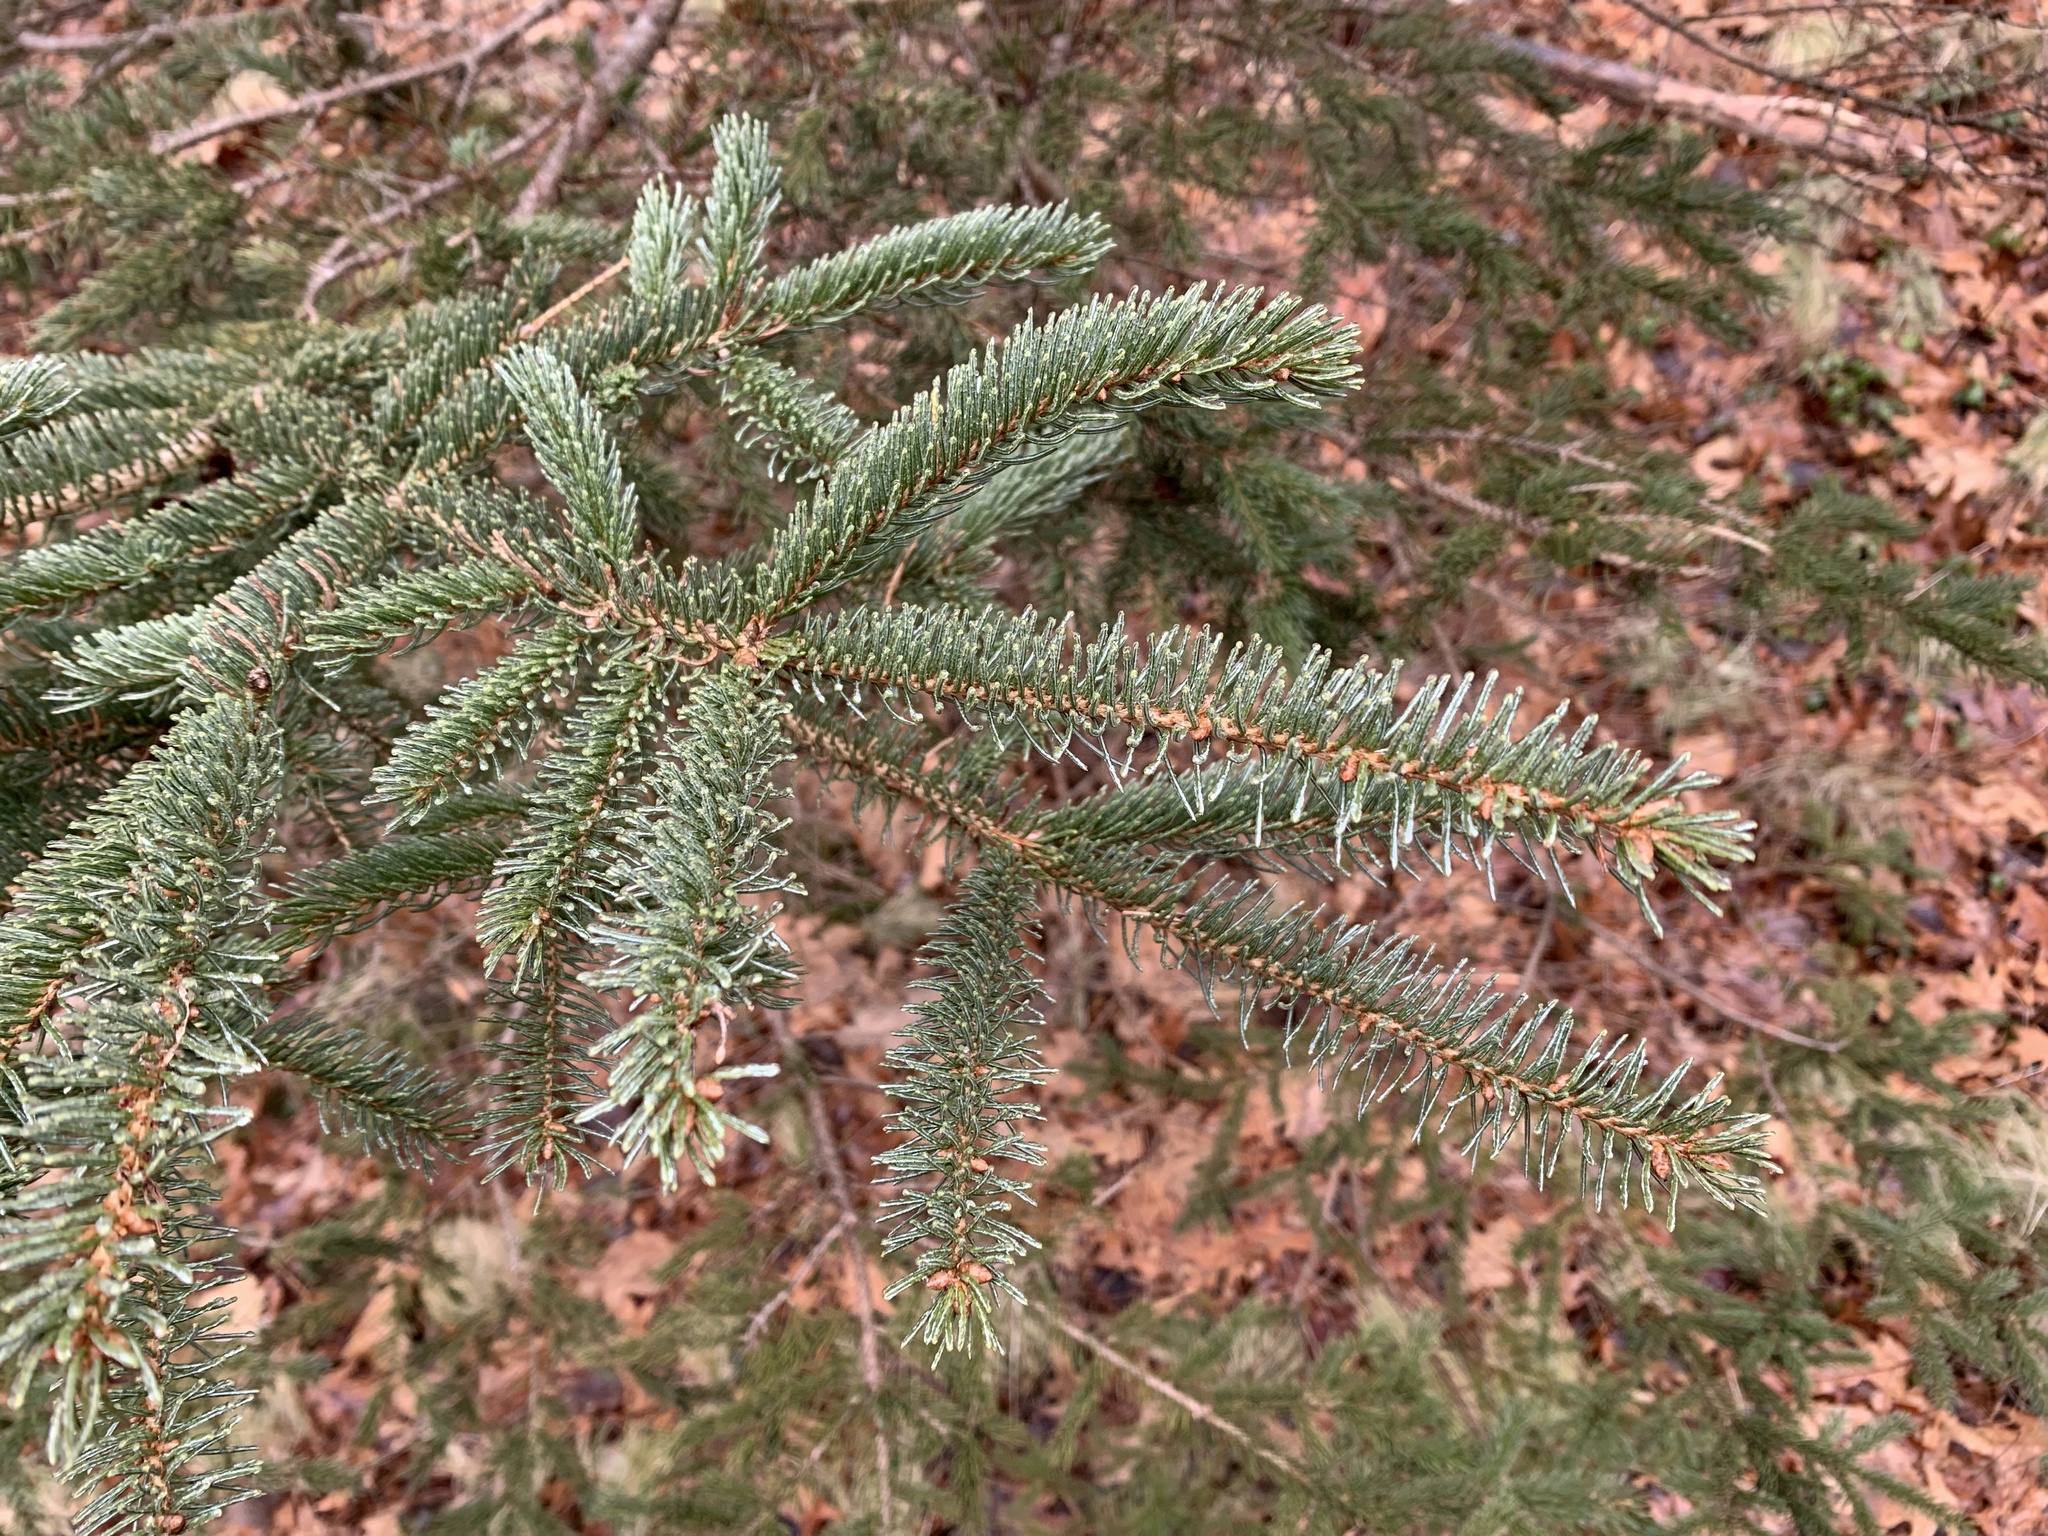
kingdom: Plantae
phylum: Tracheophyta
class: Pinopsida
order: Pinales
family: Pinaceae
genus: Picea
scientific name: Picea glauca
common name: White spruce
